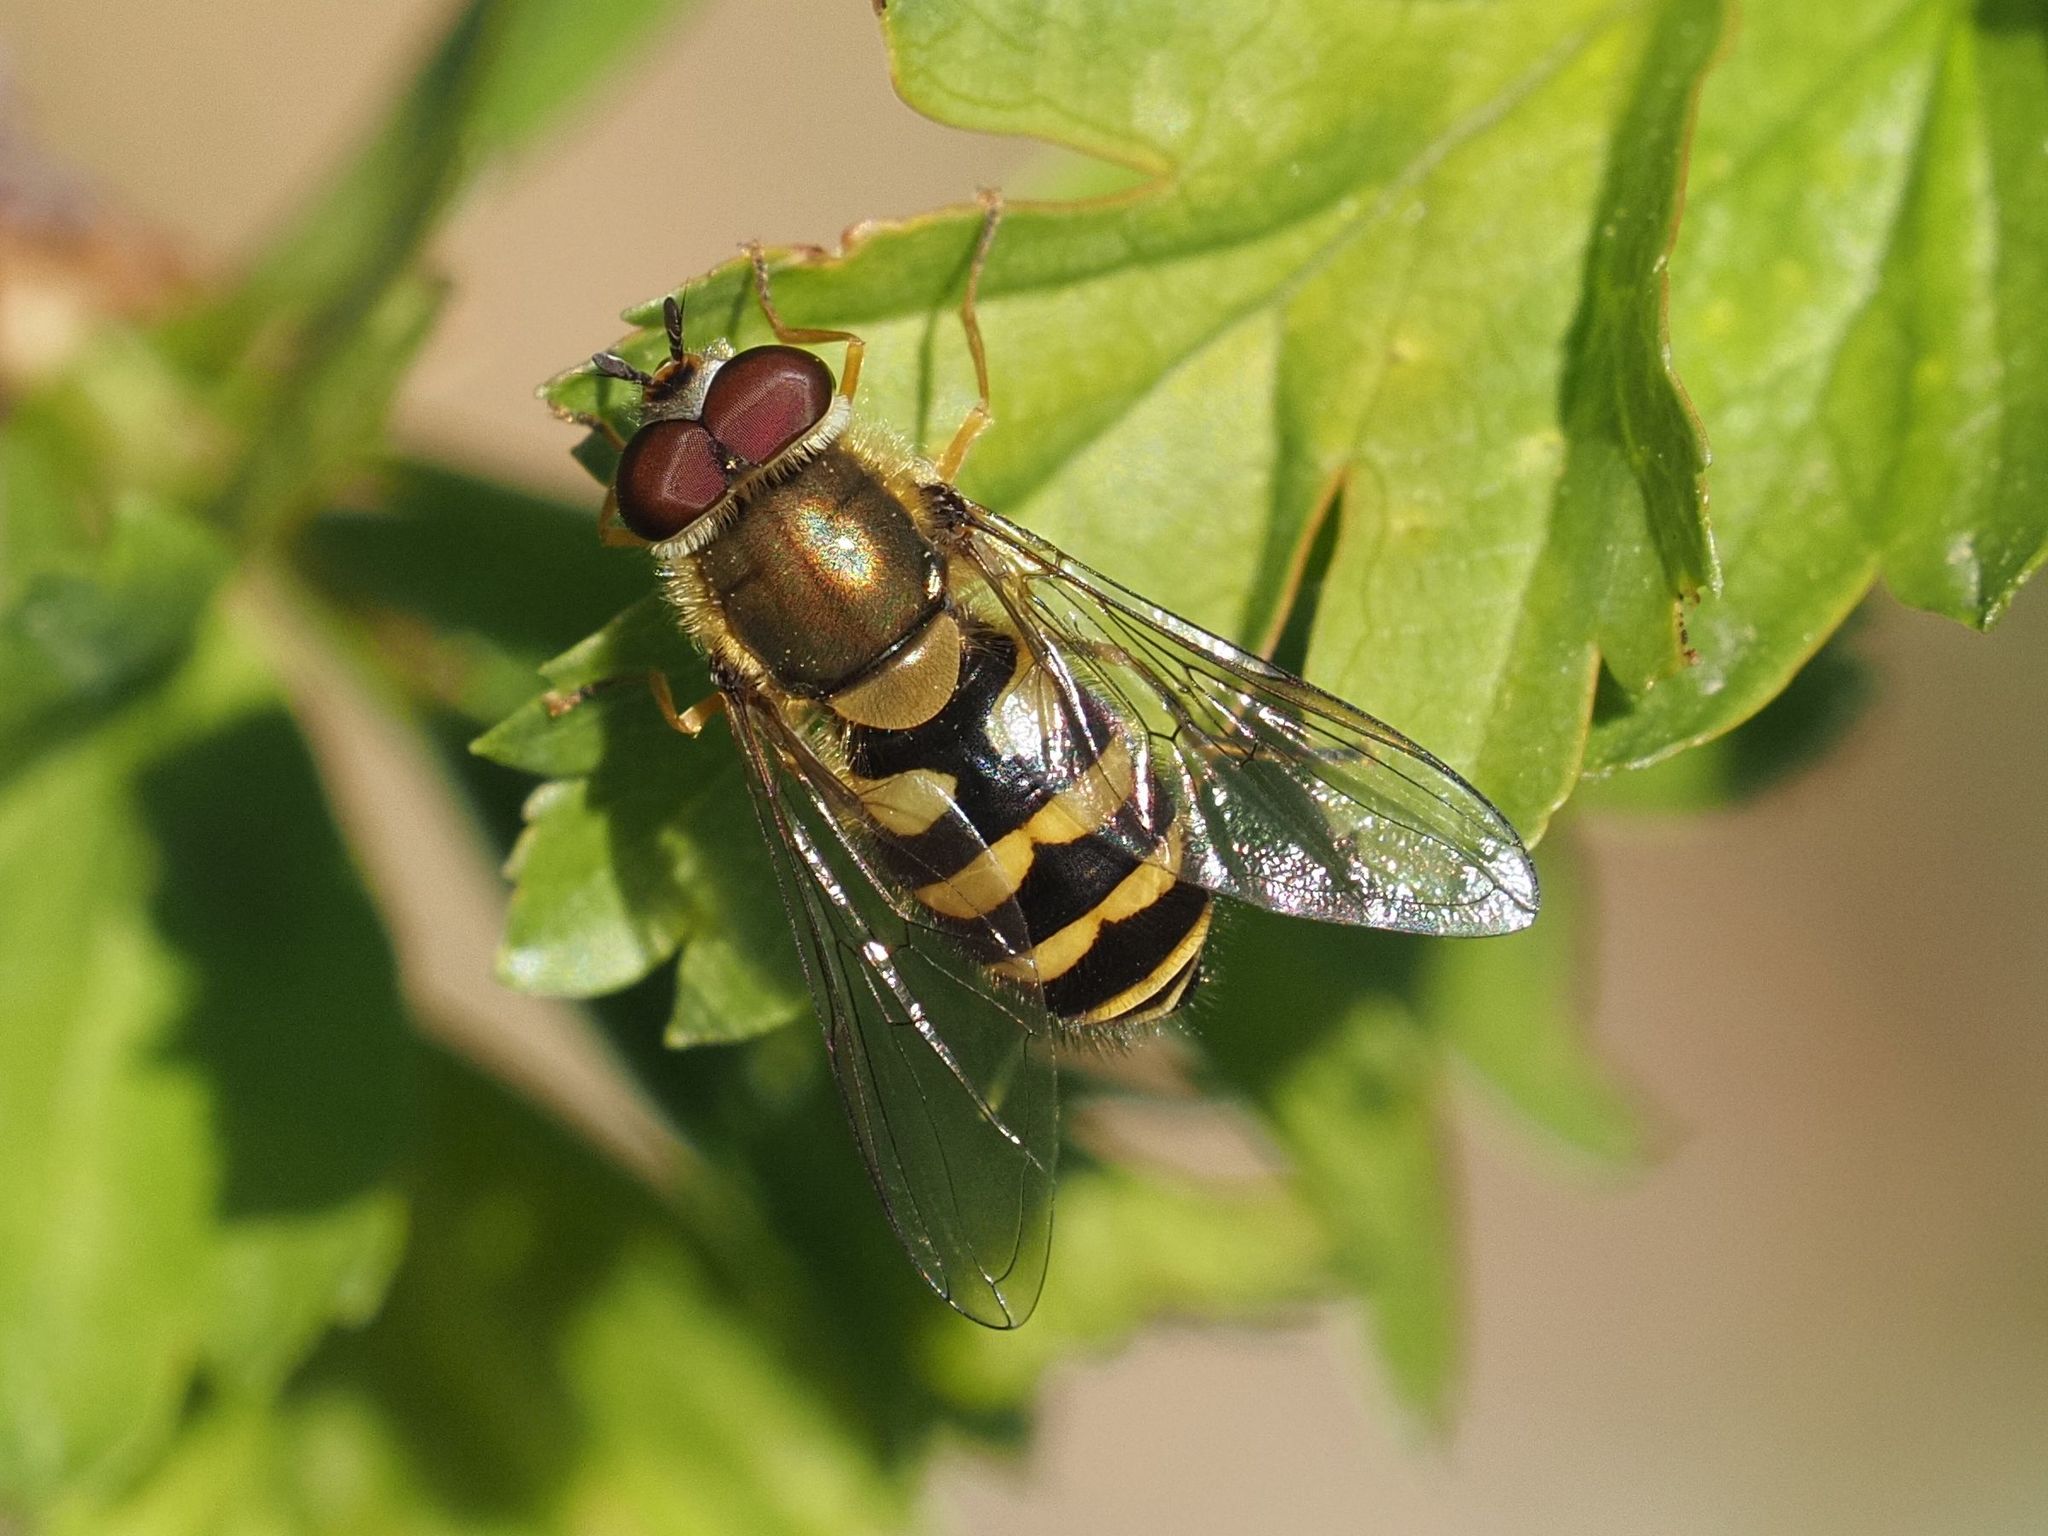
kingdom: Animalia
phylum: Arthropoda
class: Insecta
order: Diptera
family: Syrphidae
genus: Syrphus
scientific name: Syrphus
